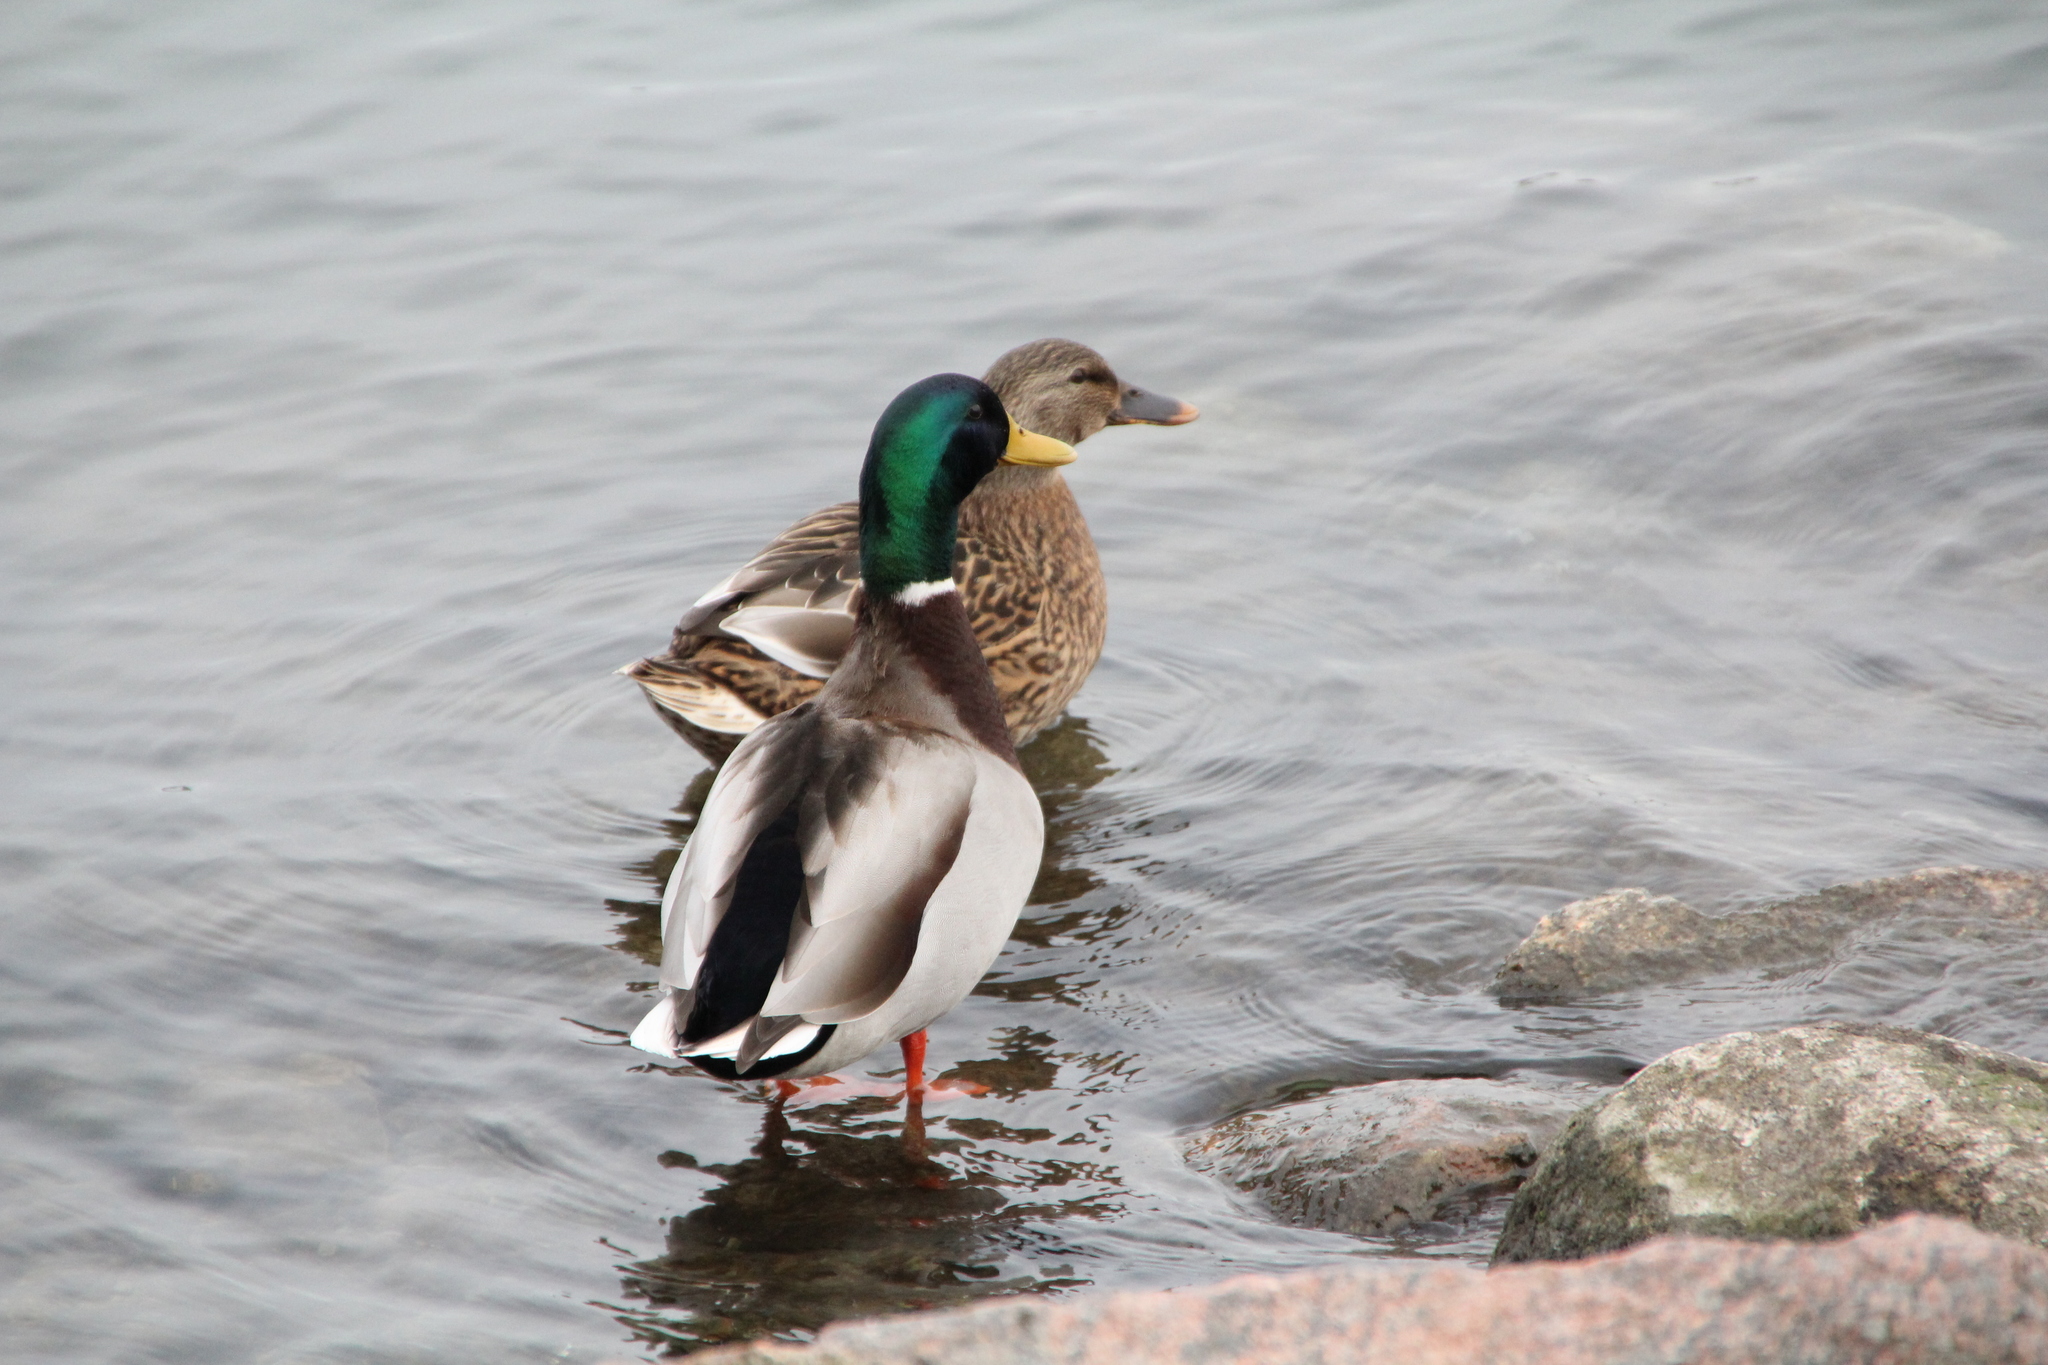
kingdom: Animalia
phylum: Chordata
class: Aves
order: Anseriformes
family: Anatidae
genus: Anas
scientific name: Anas platyrhynchos
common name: Mallard
